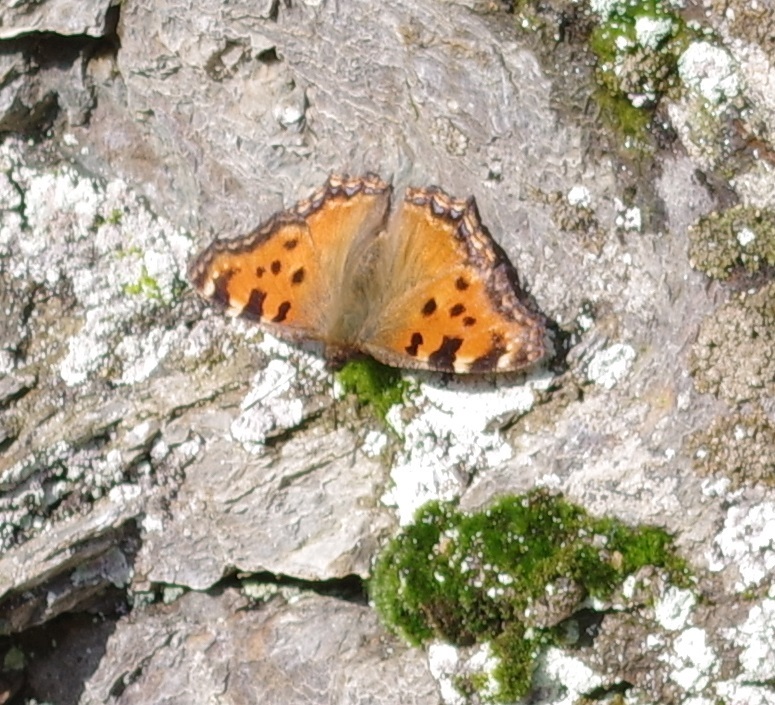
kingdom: Animalia
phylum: Arthropoda
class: Insecta
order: Lepidoptera
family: Nymphalidae
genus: Nymphalis
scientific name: Nymphalis polychloros
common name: Large tortoiseshell
